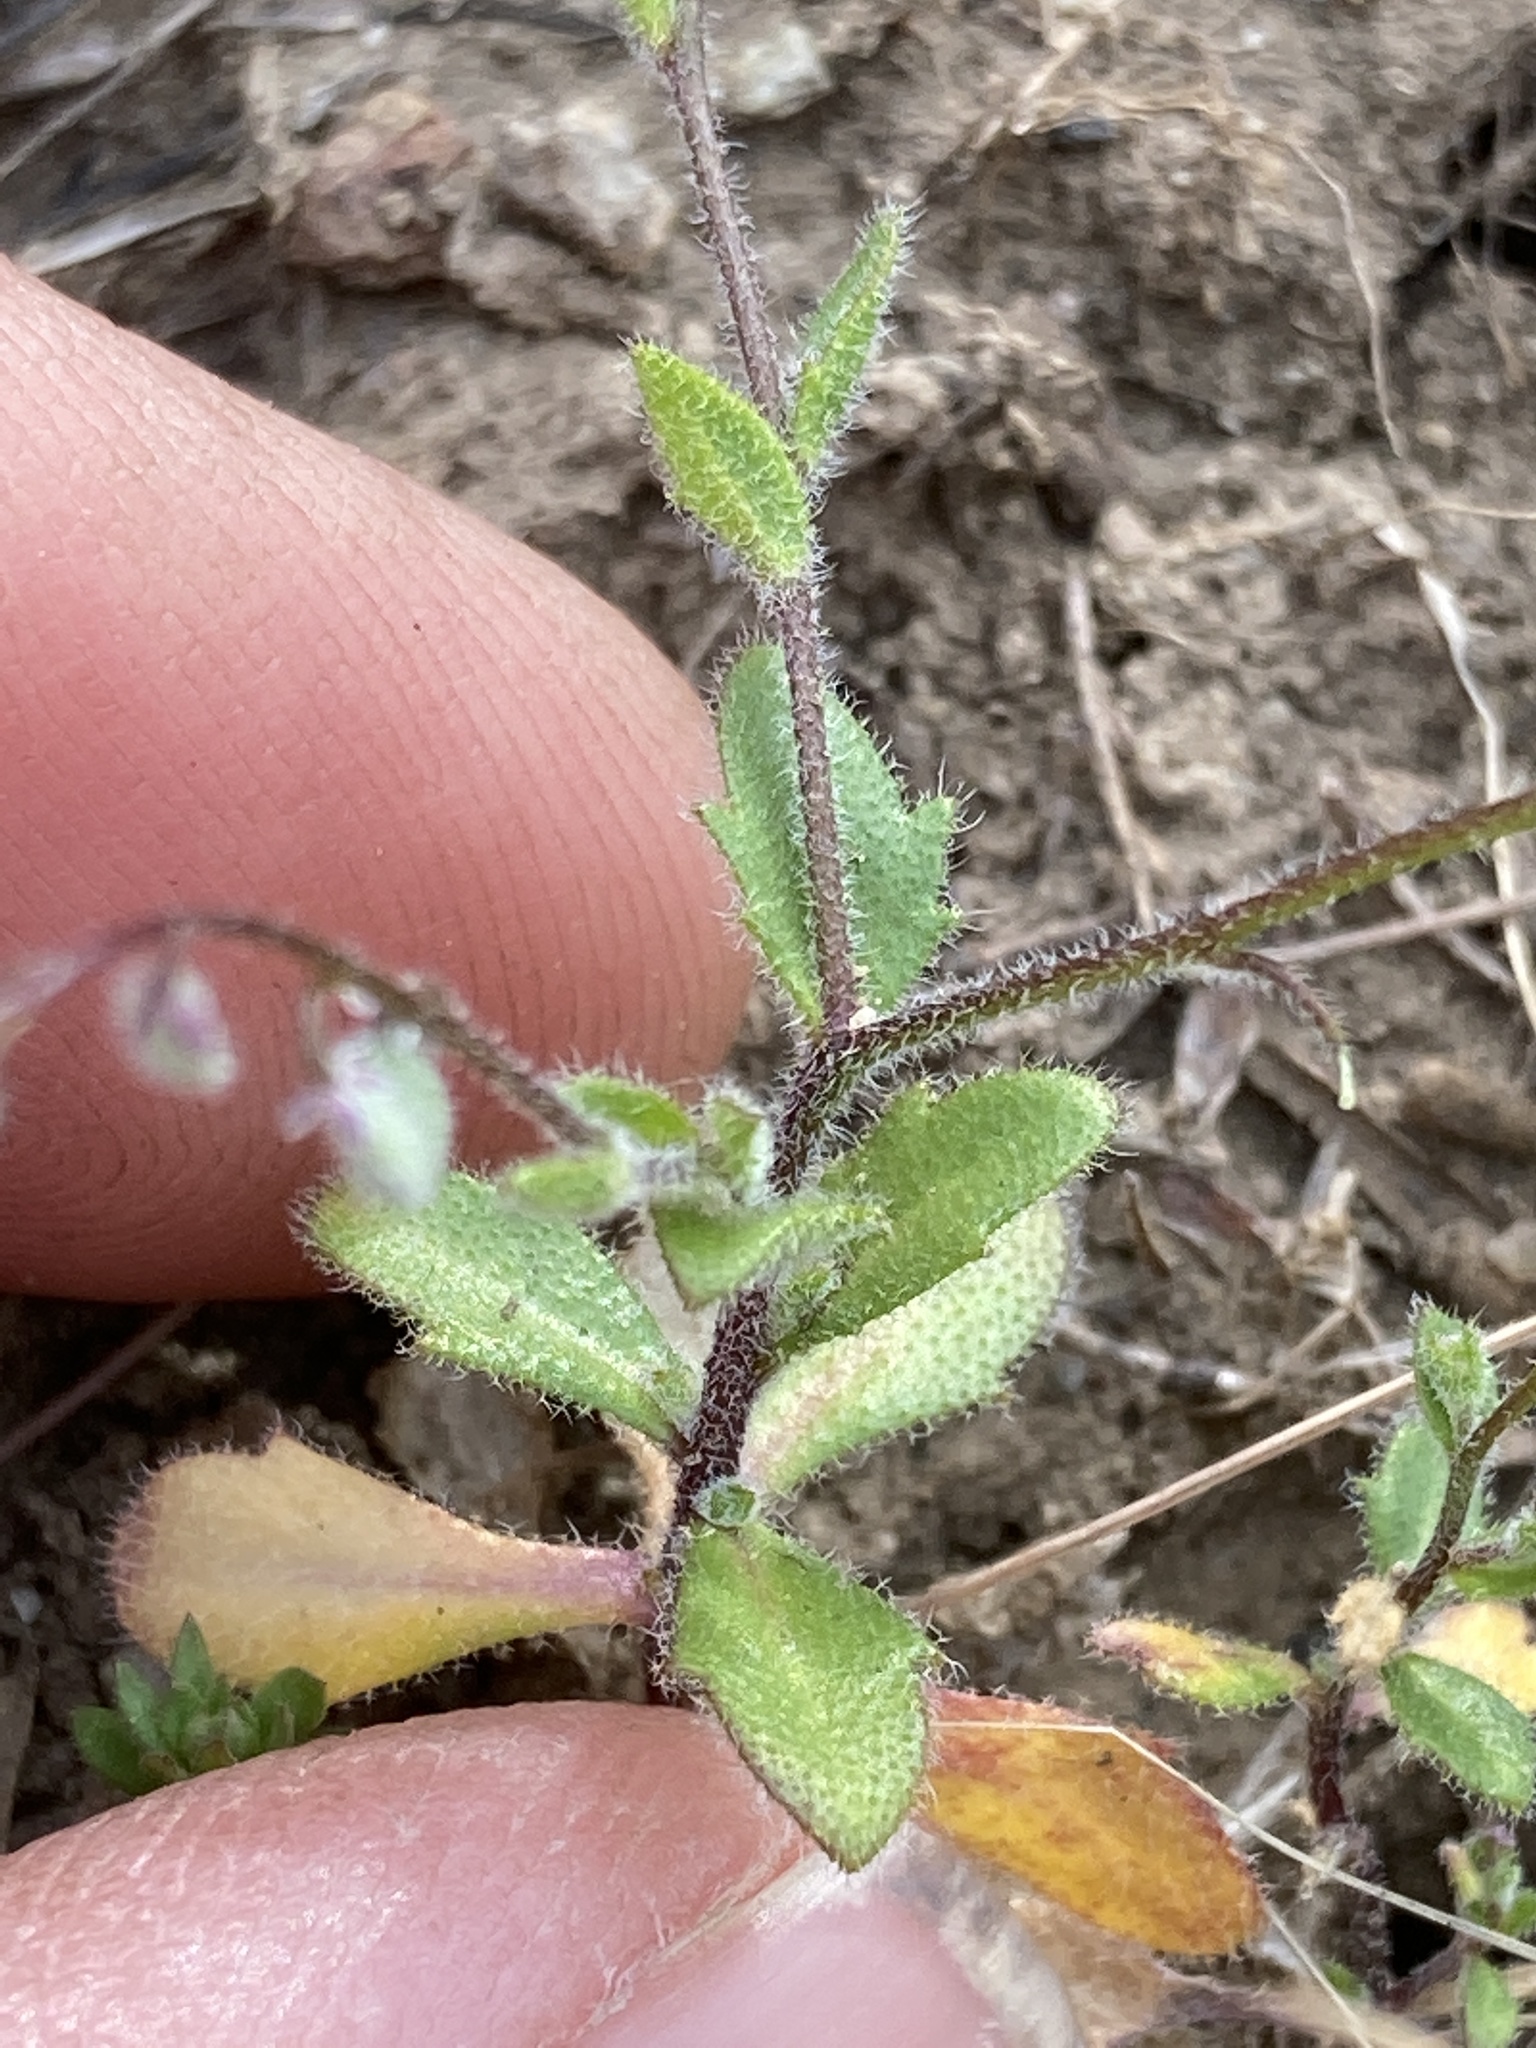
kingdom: Plantae
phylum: Tracheophyta
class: Magnoliopsida
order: Brassicales
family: Brassicaceae
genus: Athysanus
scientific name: Athysanus pusillus
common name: Common sandweed
